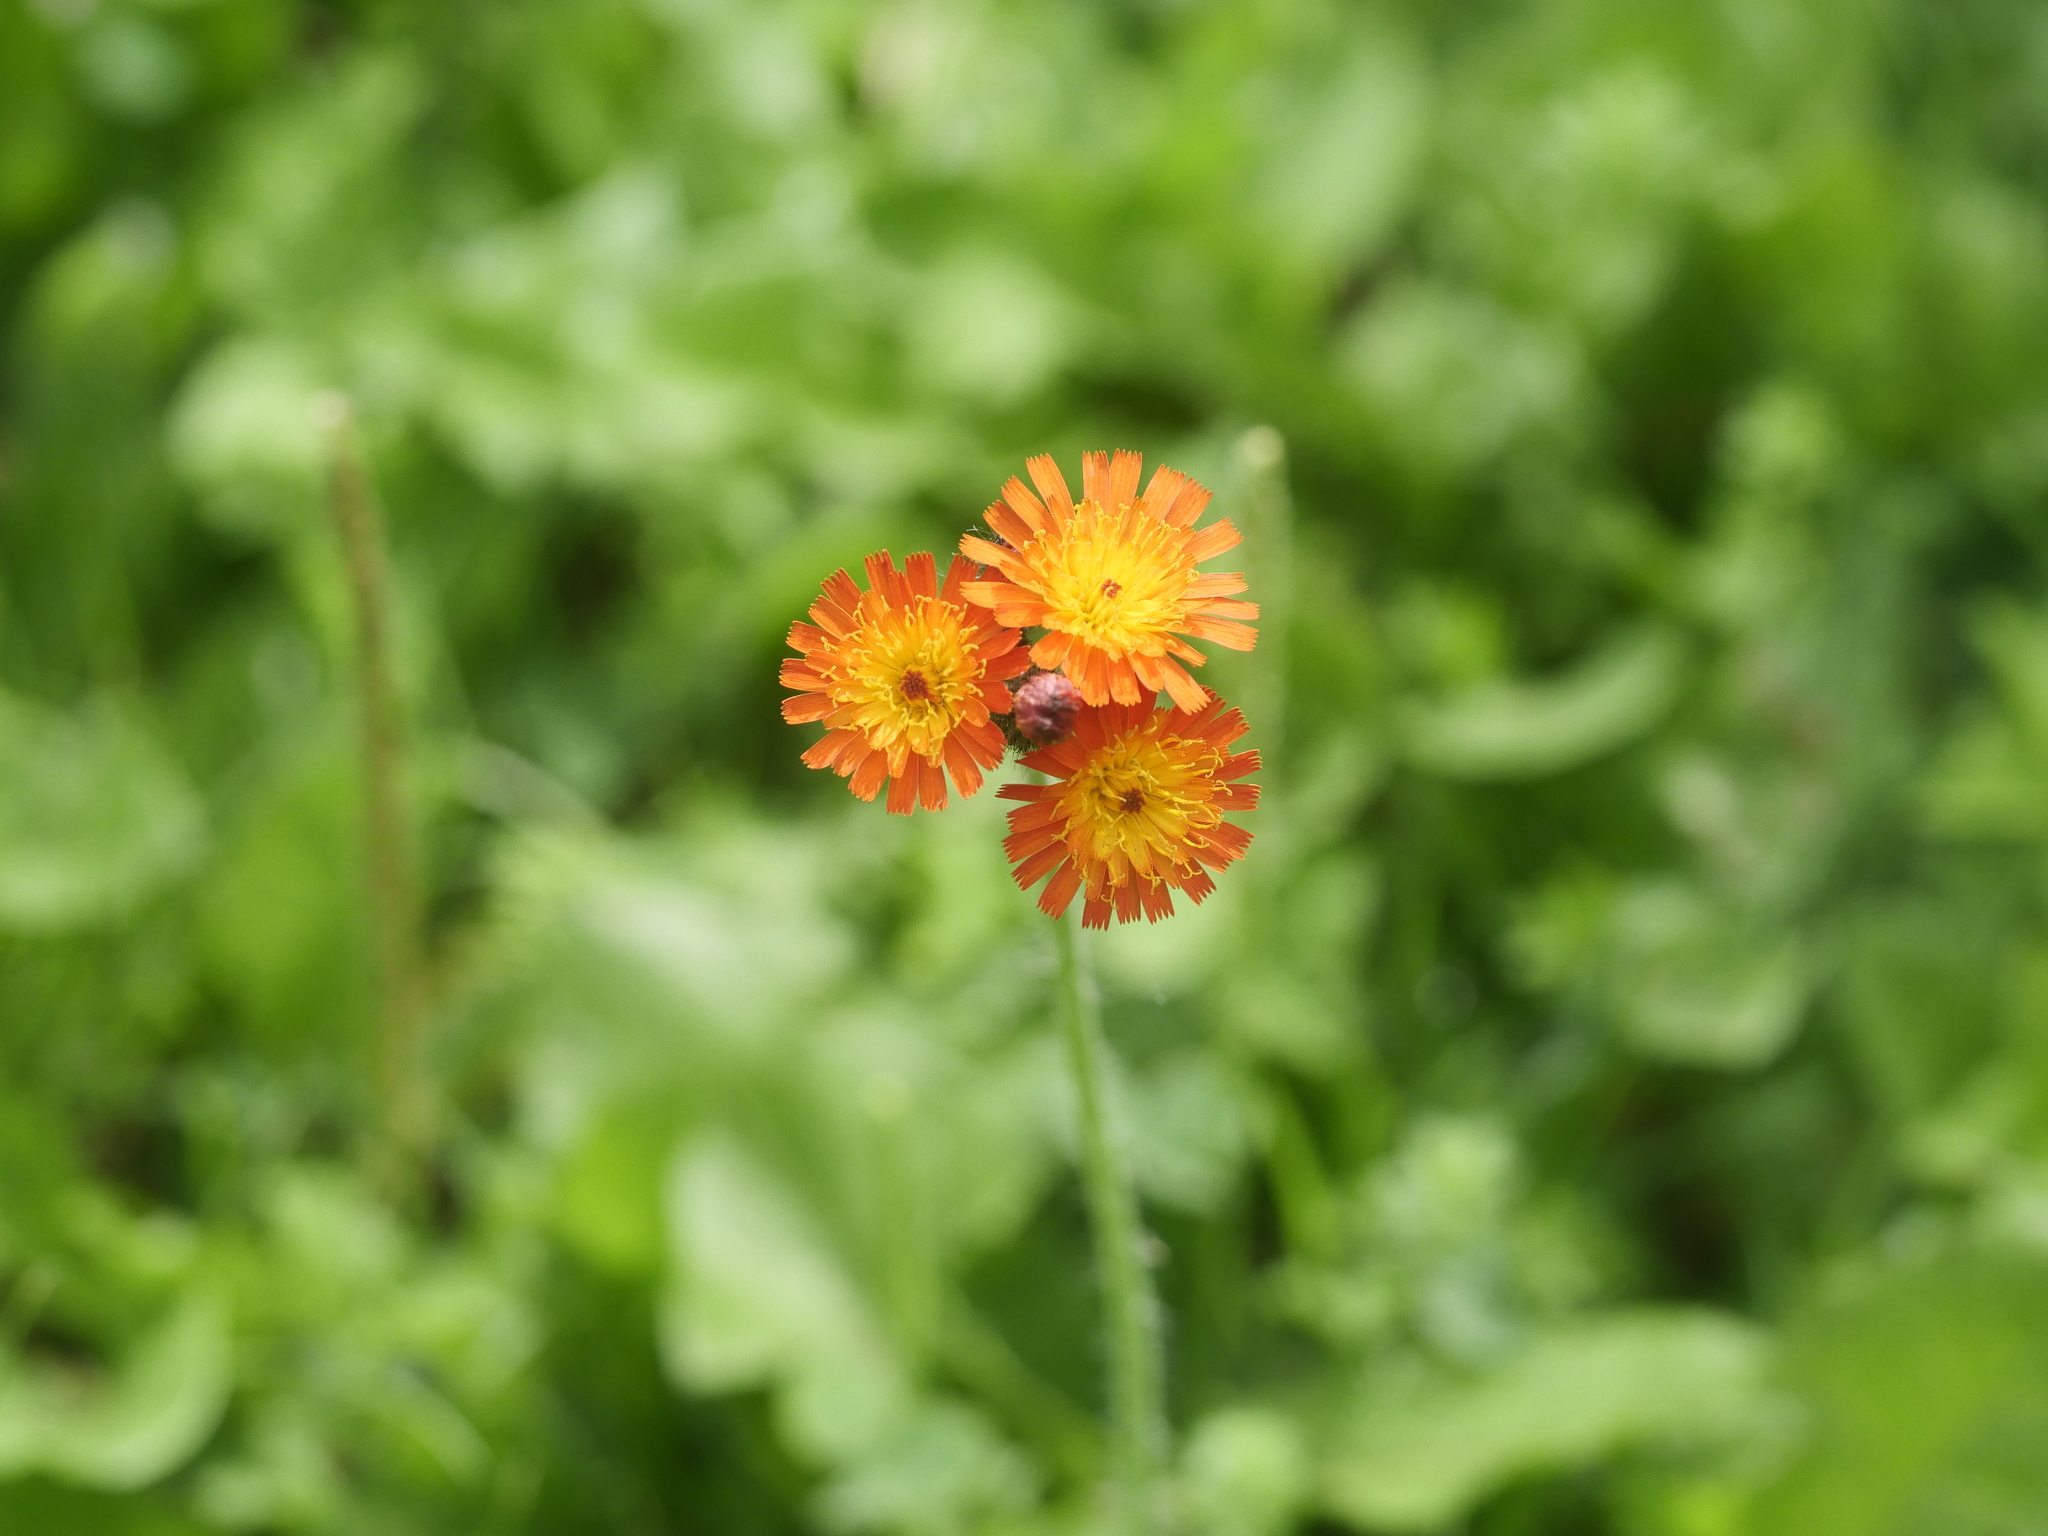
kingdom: Plantae
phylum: Tracheophyta
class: Magnoliopsida
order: Asterales
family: Asteraceae
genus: Pilosella
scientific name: Pilosella aurantiaca
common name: Fox-and-cubs
